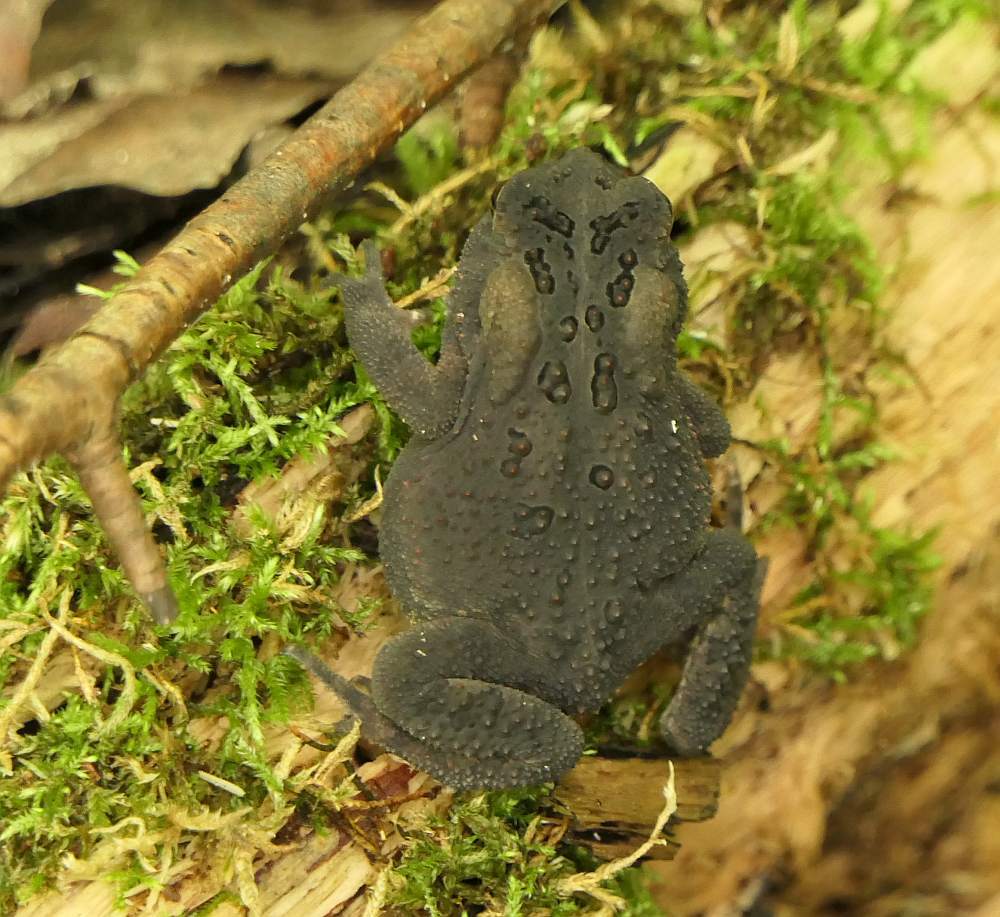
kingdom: Animalia
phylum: Chordata
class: Amphibia
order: Anura
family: Bufonidae
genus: Anaxyrus
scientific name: Anaxyrus americanus
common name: American toad
